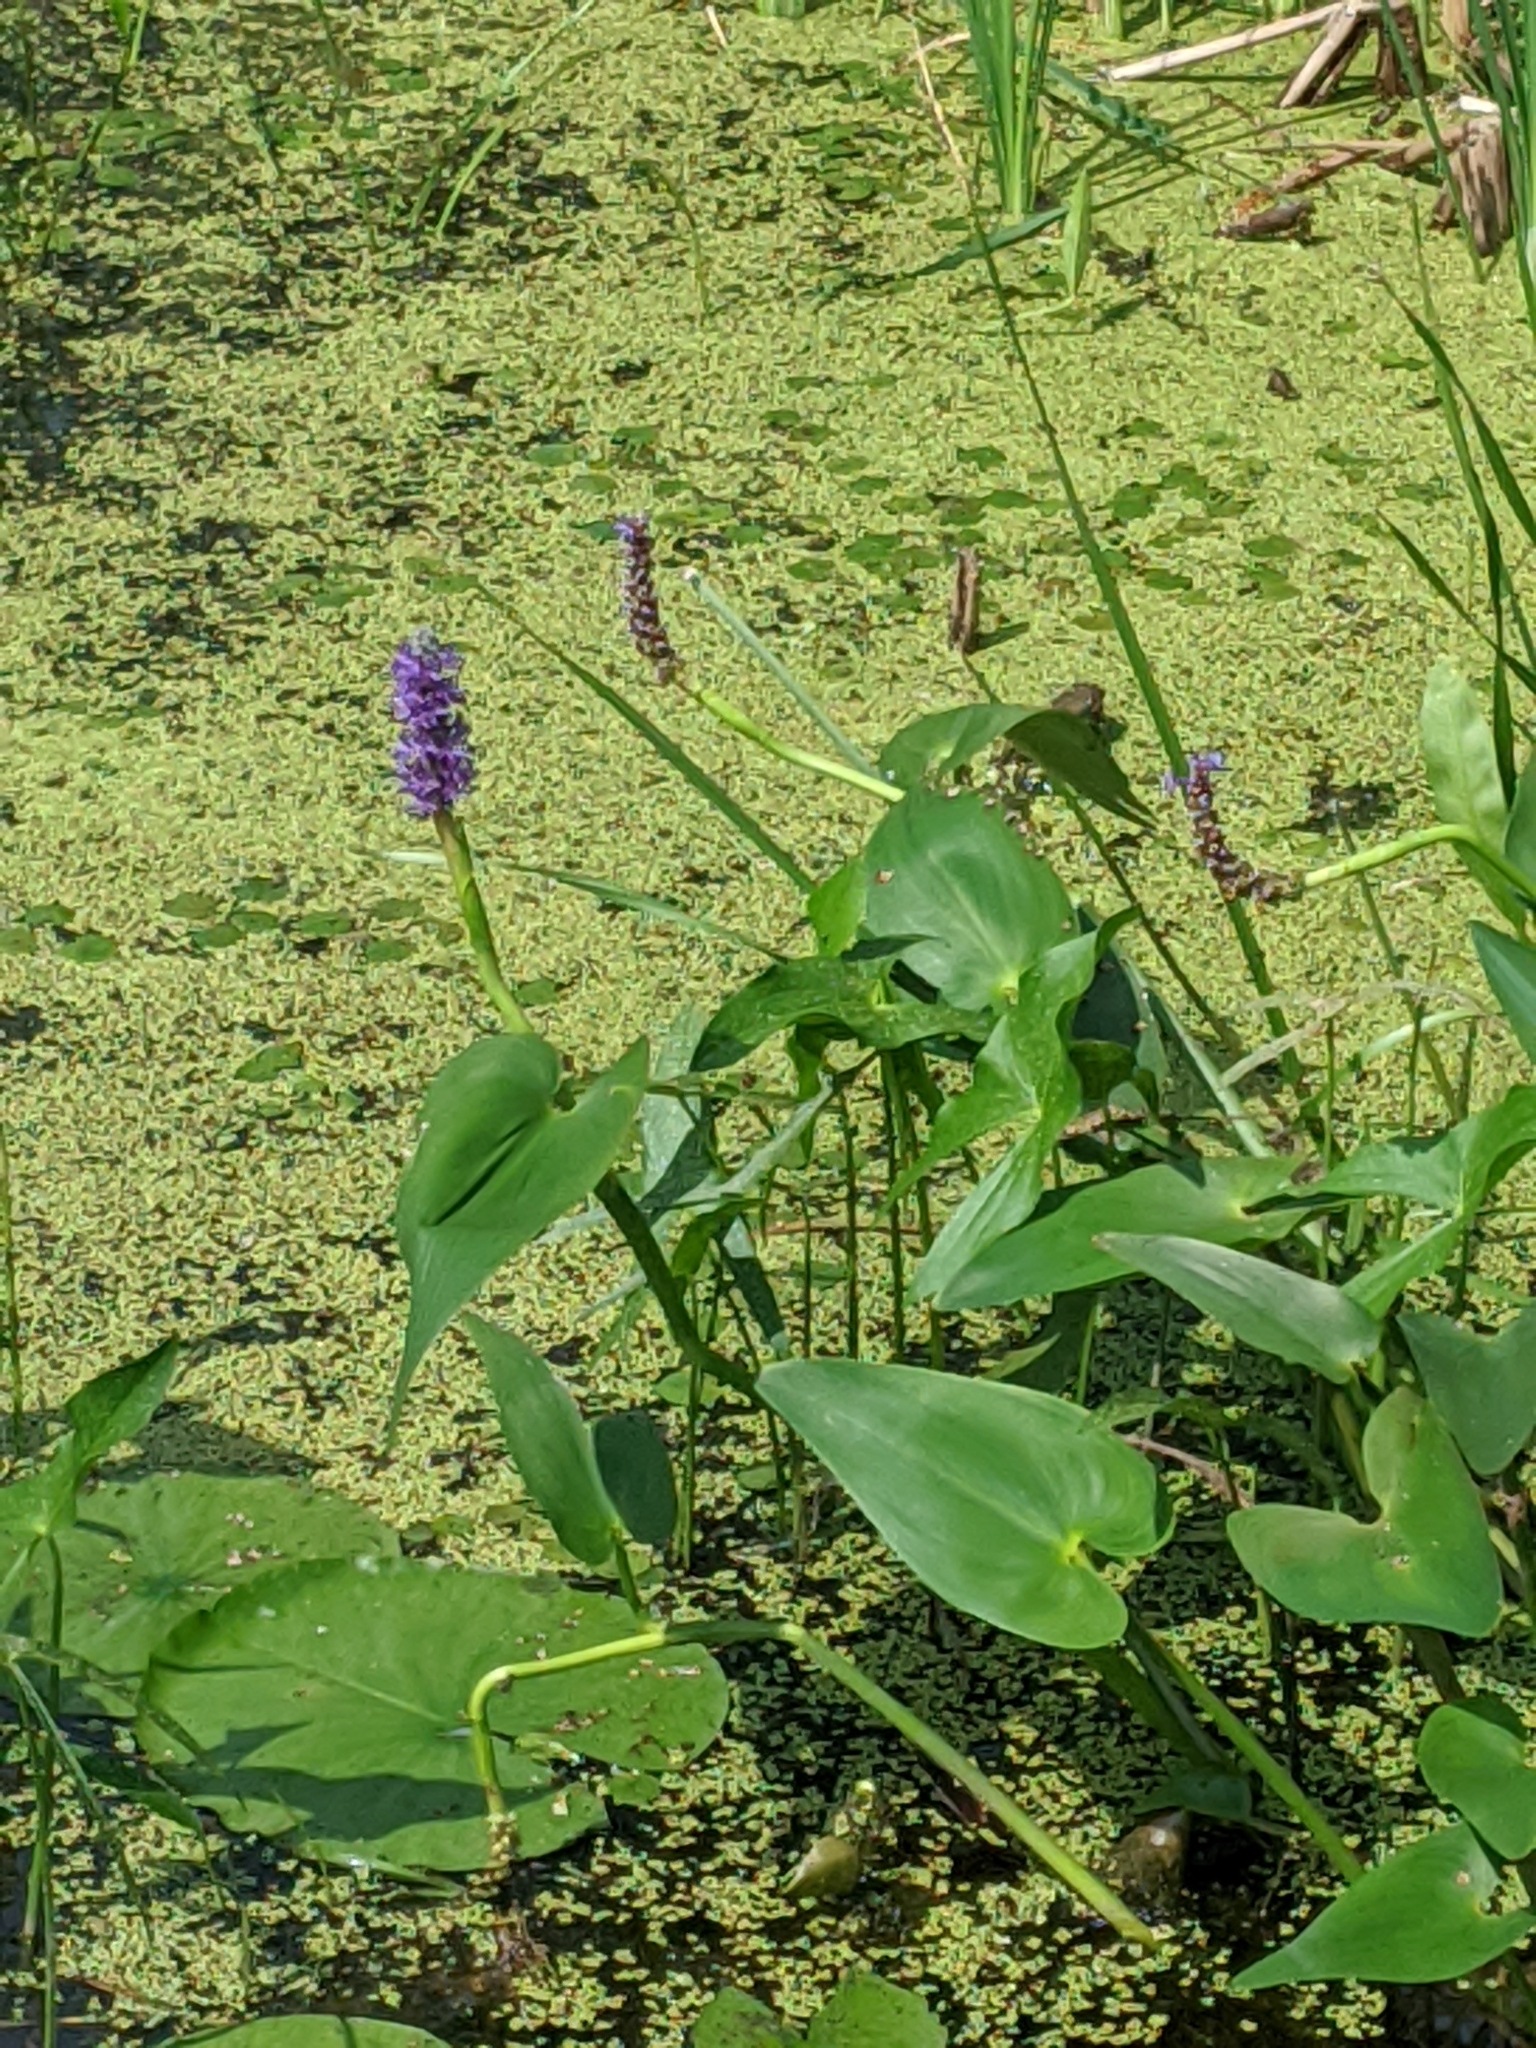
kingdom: Plantae
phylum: Tracheophyta
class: Liliopsida
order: Commelinales
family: Pontederiaceae
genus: Pontederia
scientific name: Pontederia cordata
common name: Pickerelweed
